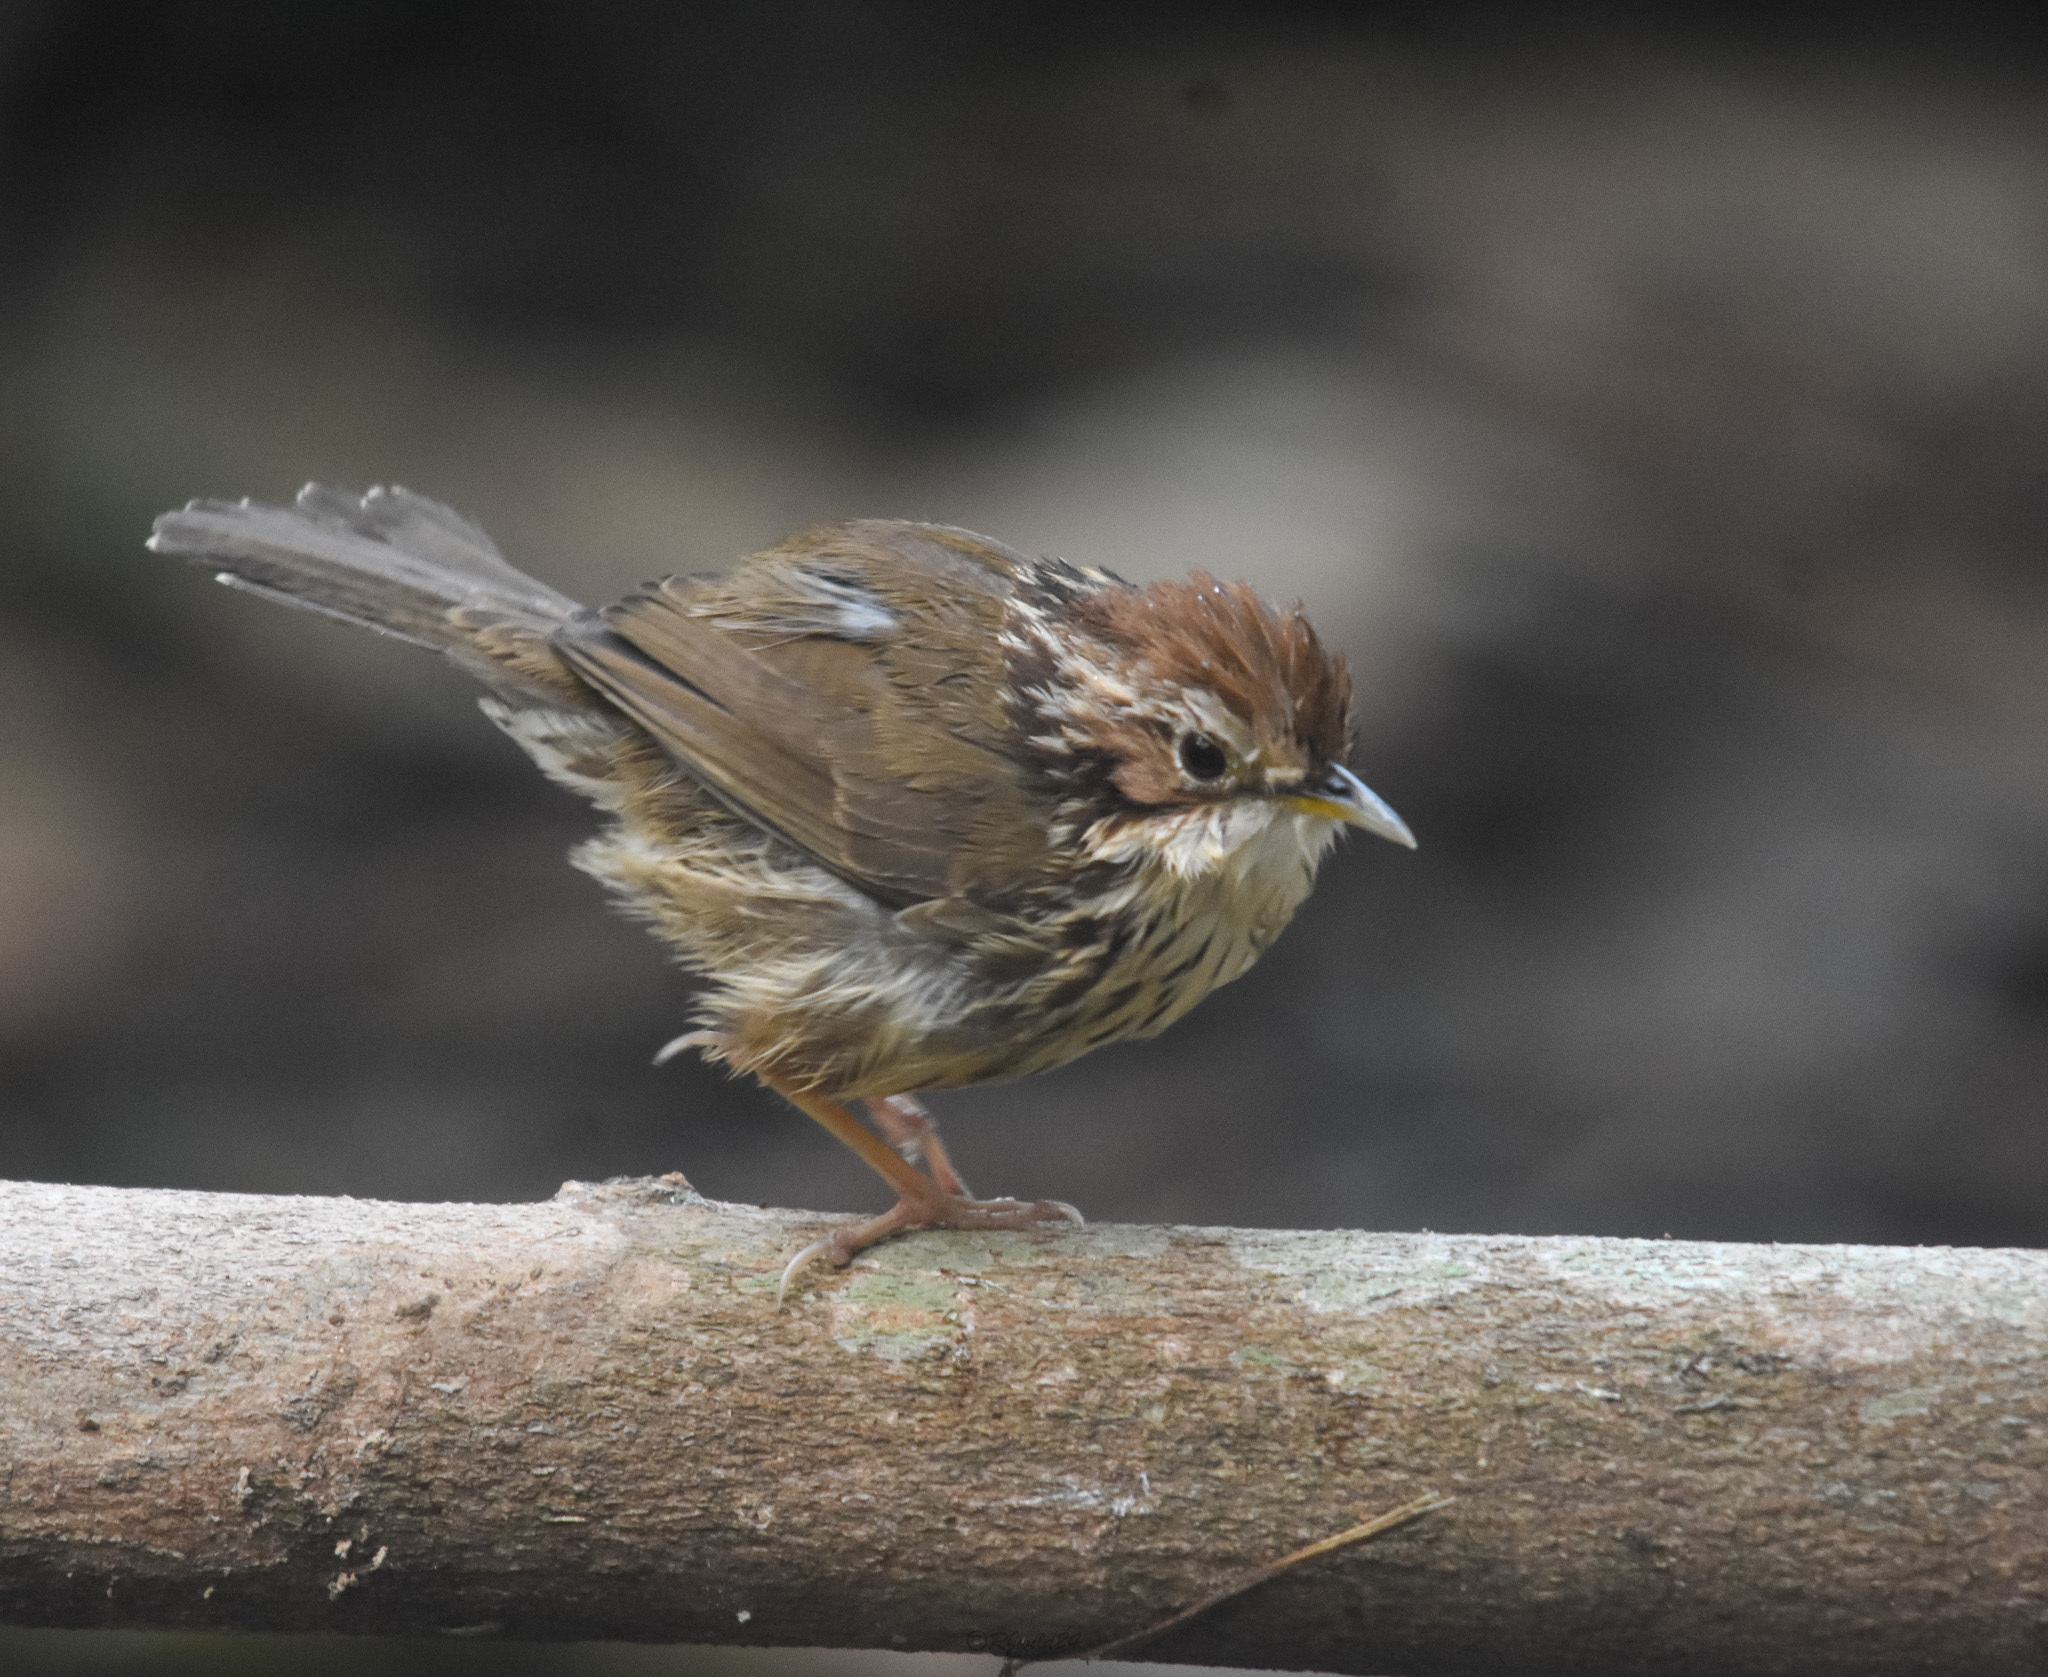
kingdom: Animalia
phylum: Chordata
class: Aves
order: Passeriformes
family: Pellorneidae
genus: Pellorneum
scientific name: Pellorneum ruficeps
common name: Puff-throated babbler
